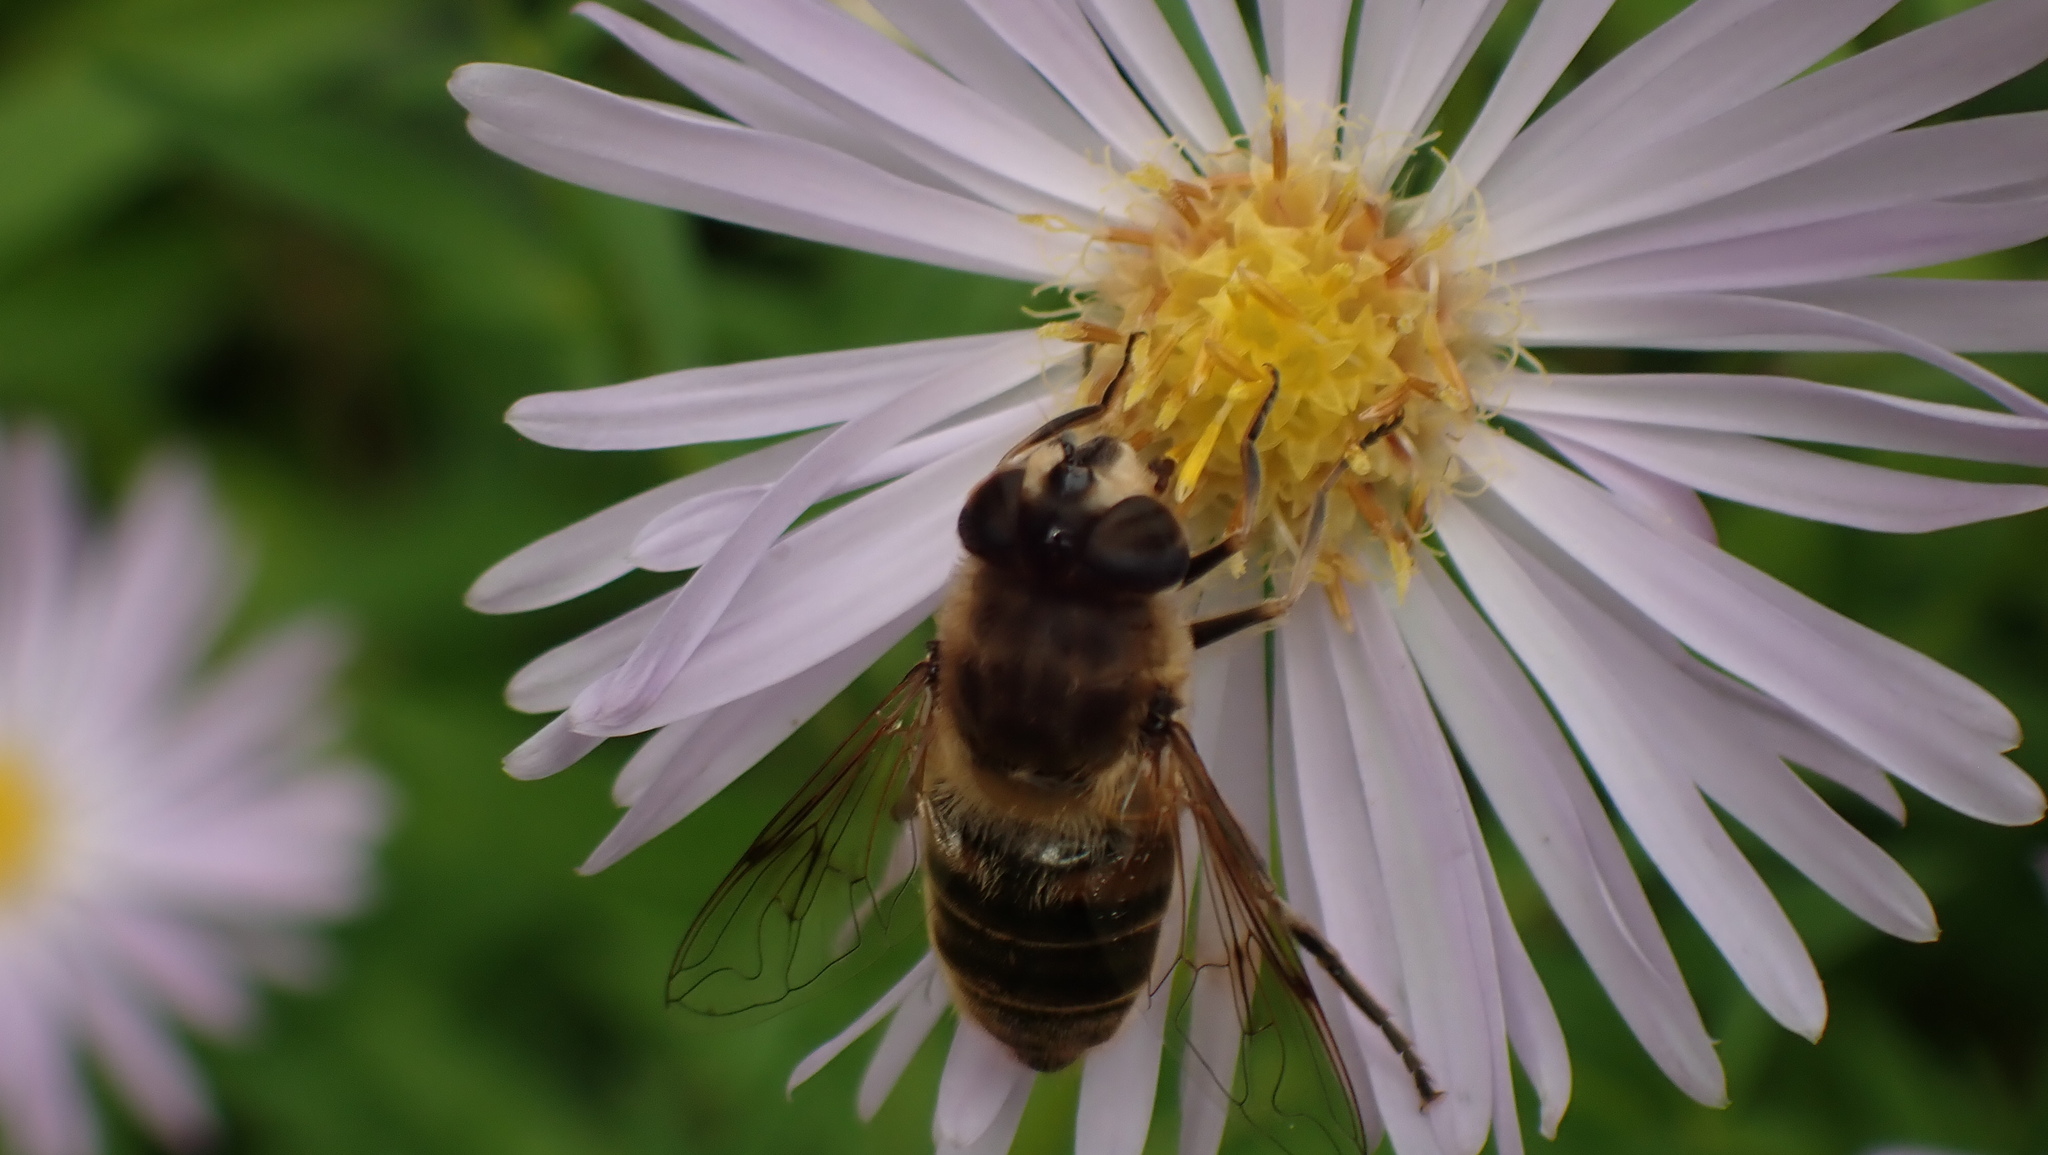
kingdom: Animalia
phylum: Arthropoda
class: Insecta
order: Diptera
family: Syrphidae
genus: Eristalis
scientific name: Eristalis tenax
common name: Drone fly
